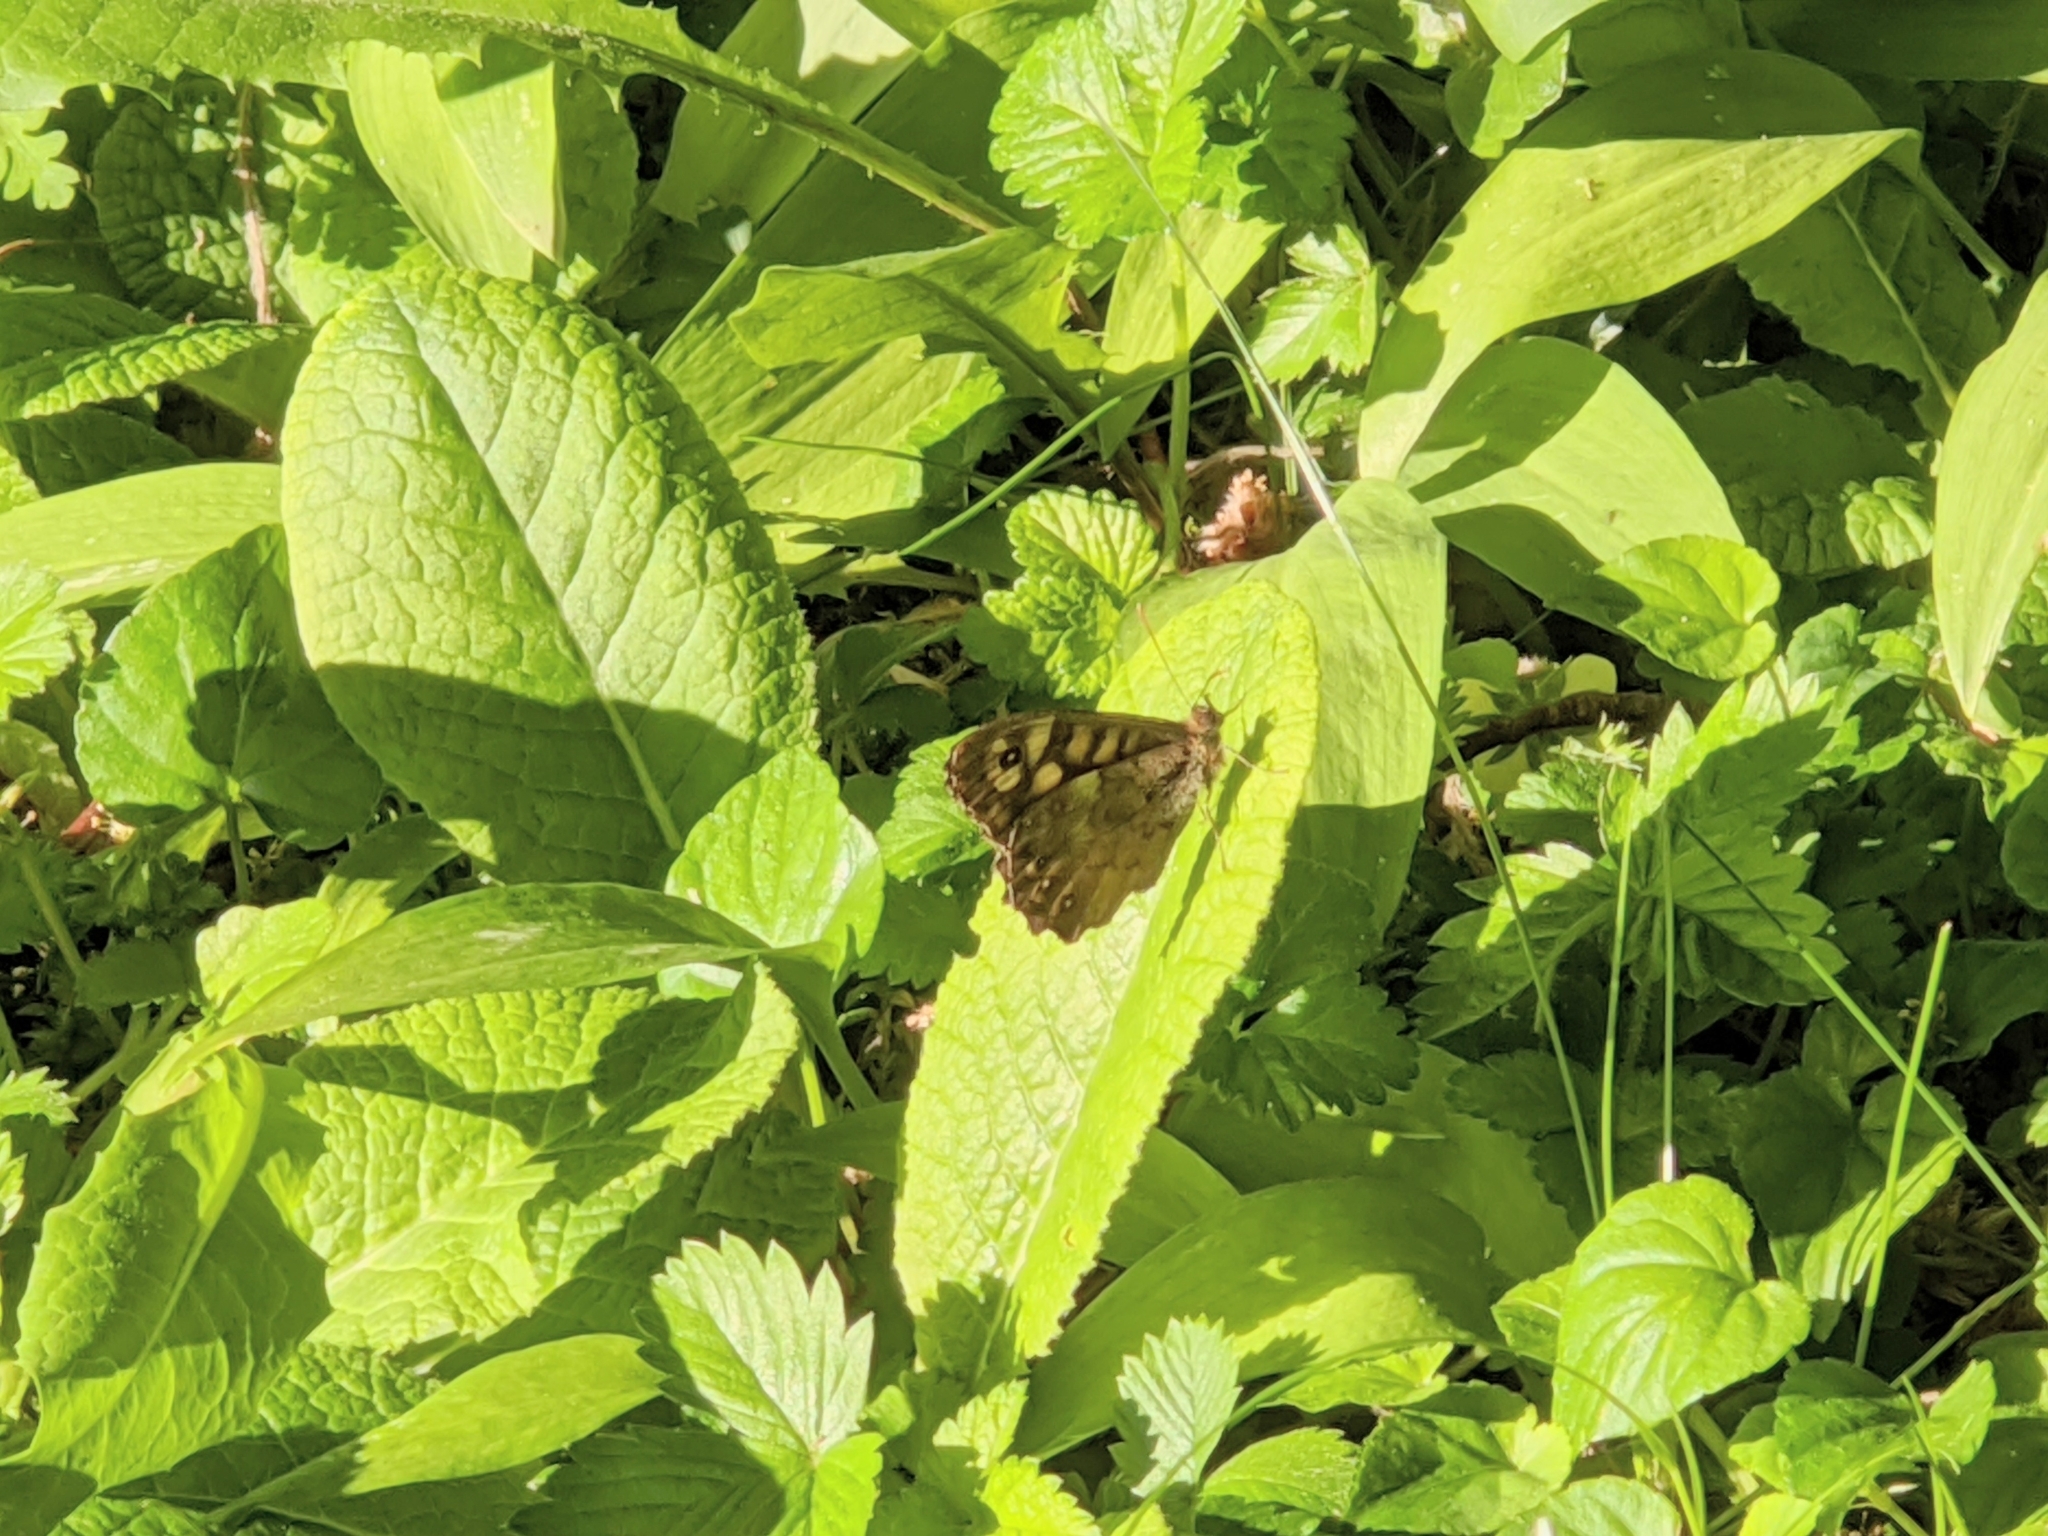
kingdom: Animalia
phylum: Arthropoda
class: Insecta
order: Lepidoptera
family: Nymphalidae
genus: Pararge
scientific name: Pararge aegeria
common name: Speckled wood
